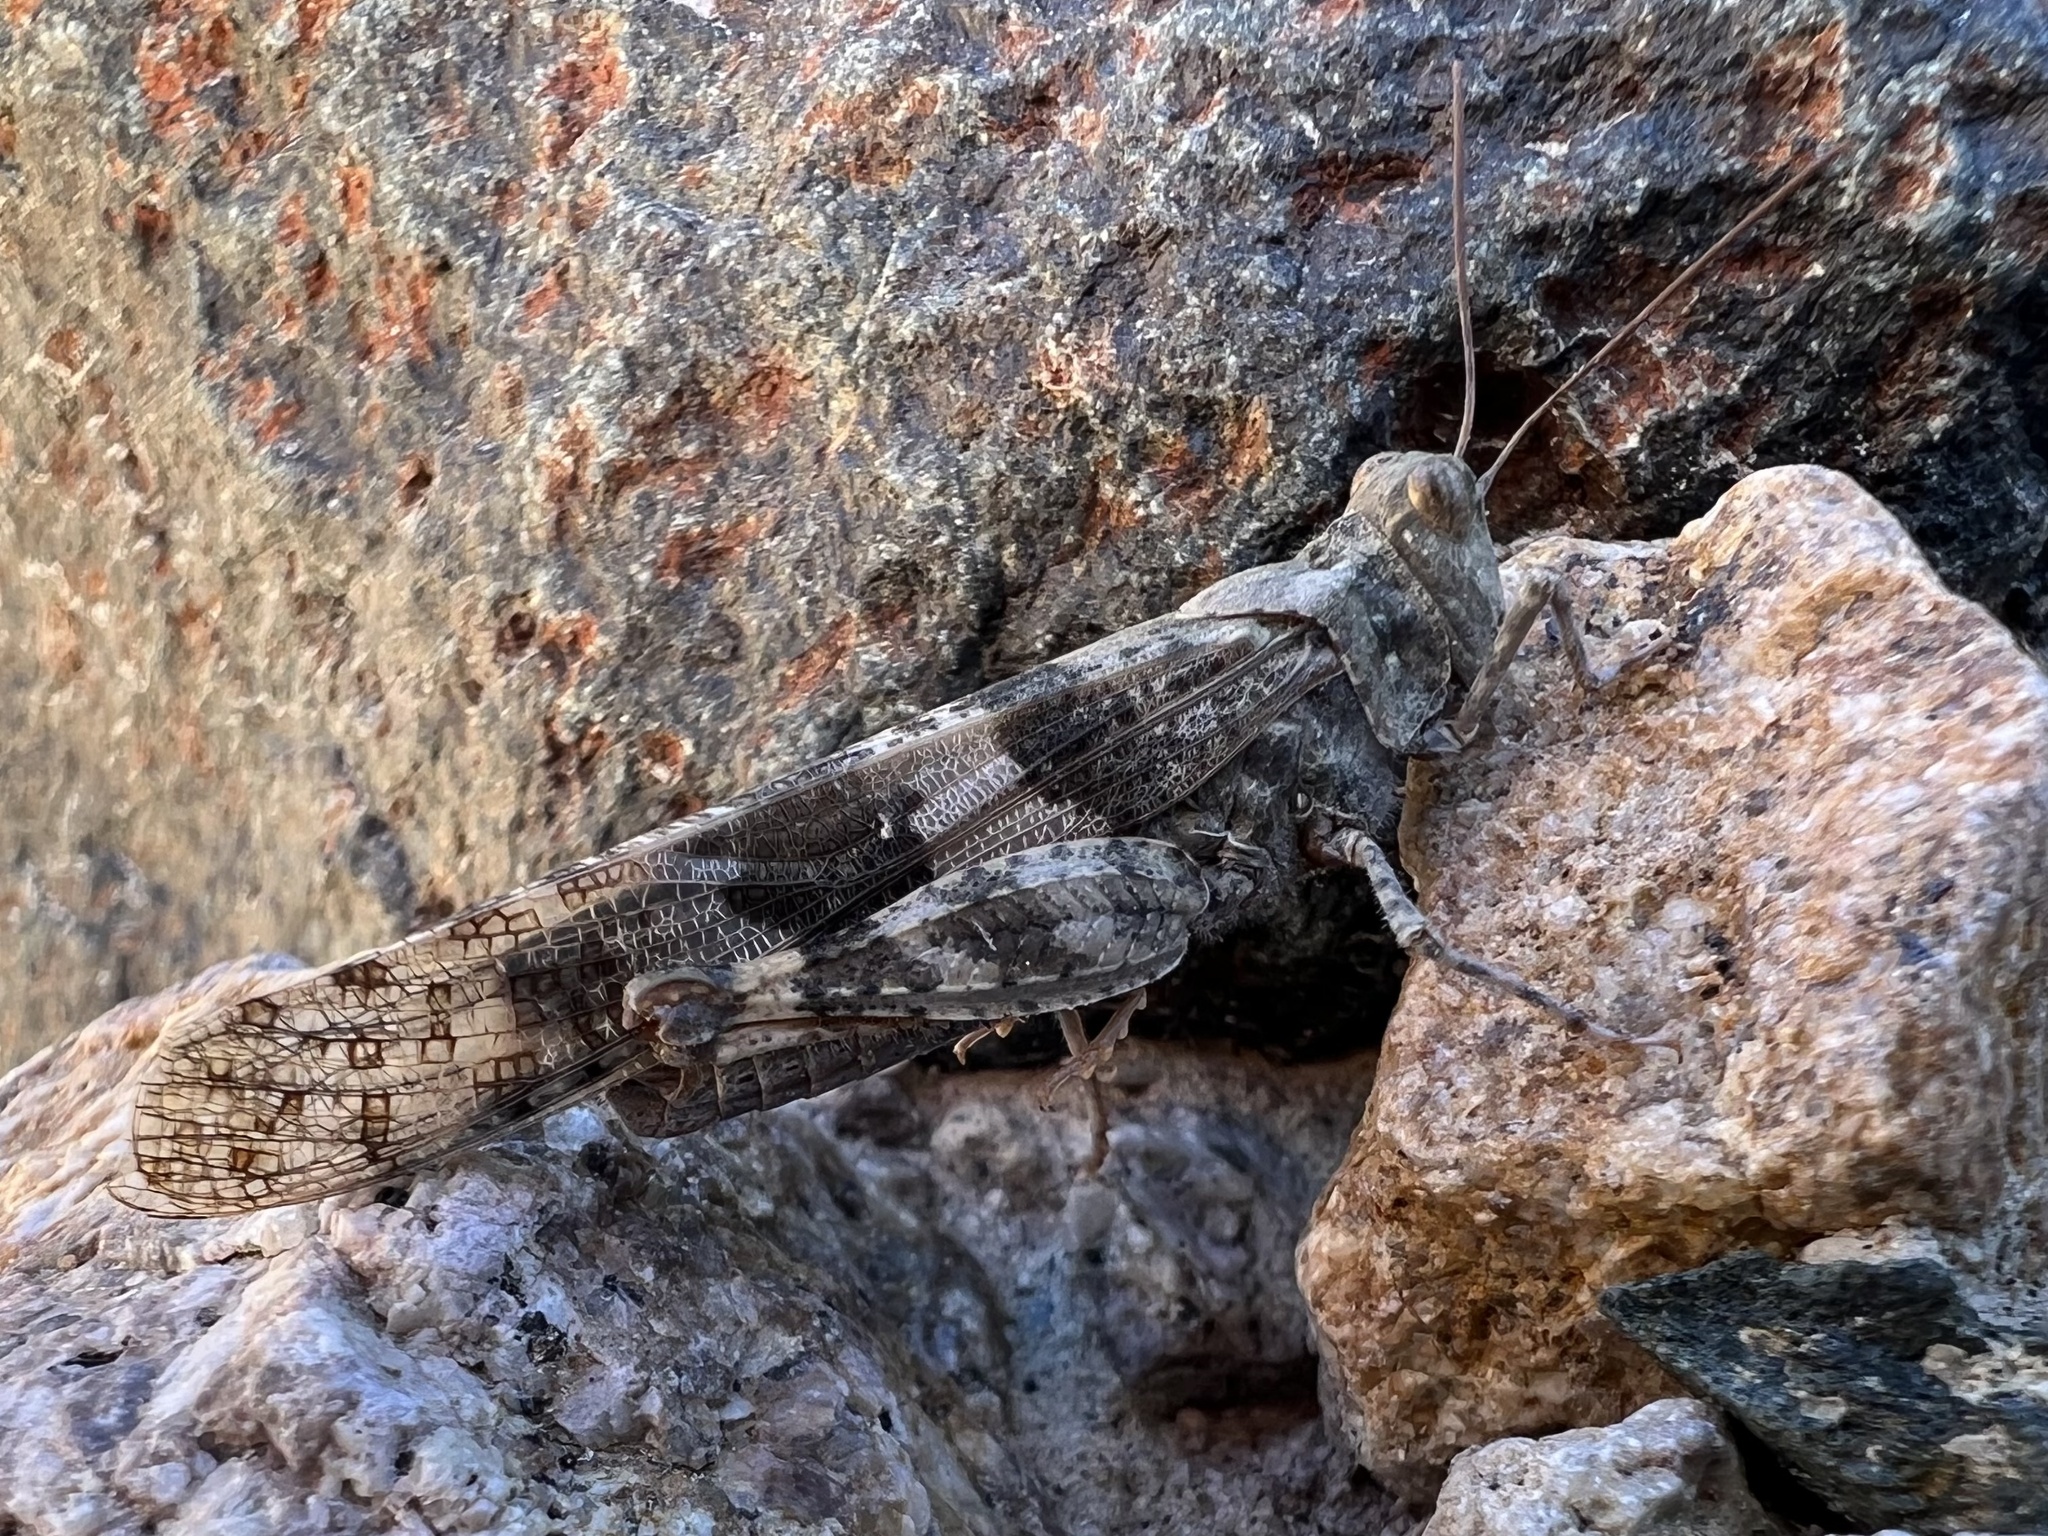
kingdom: Animalia
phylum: Arthropoda
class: Insecta
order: Orthoptera
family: Acrididae
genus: Trimerotropis
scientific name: Trimerotropis pallidipennis
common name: Pallid-winged grasshopper
